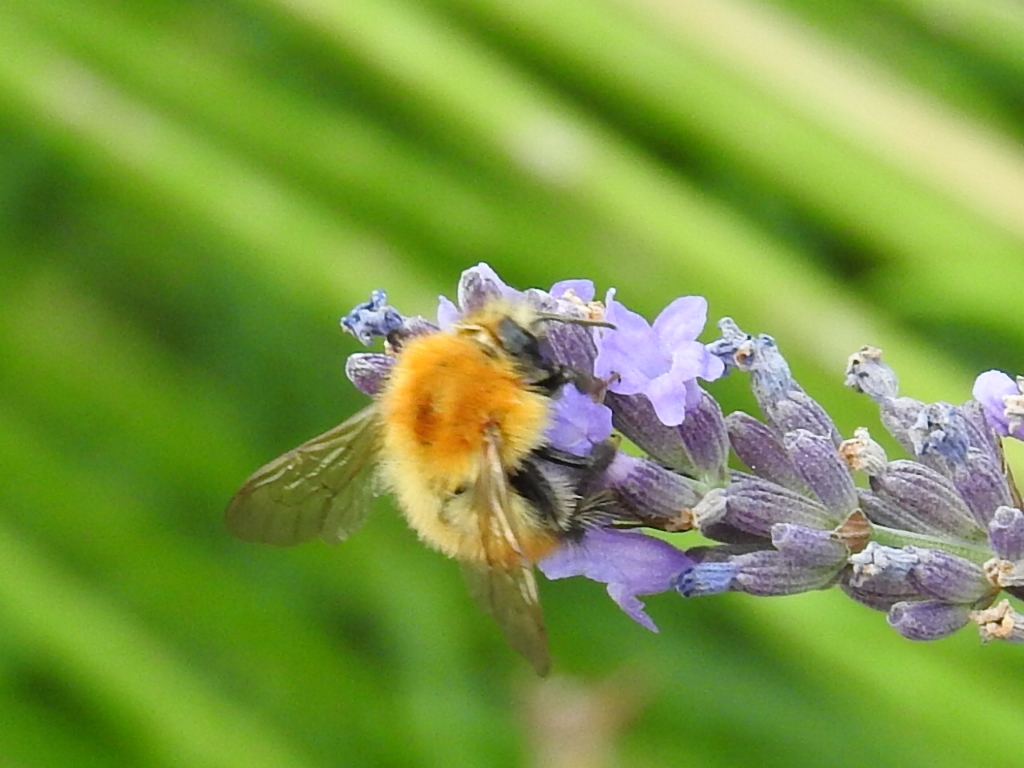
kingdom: Animalia
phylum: Arthropoda
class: Insecta
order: Hymenoptera
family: Apidae
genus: Bombus
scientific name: Bombus pascuorum
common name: Common carder bee
